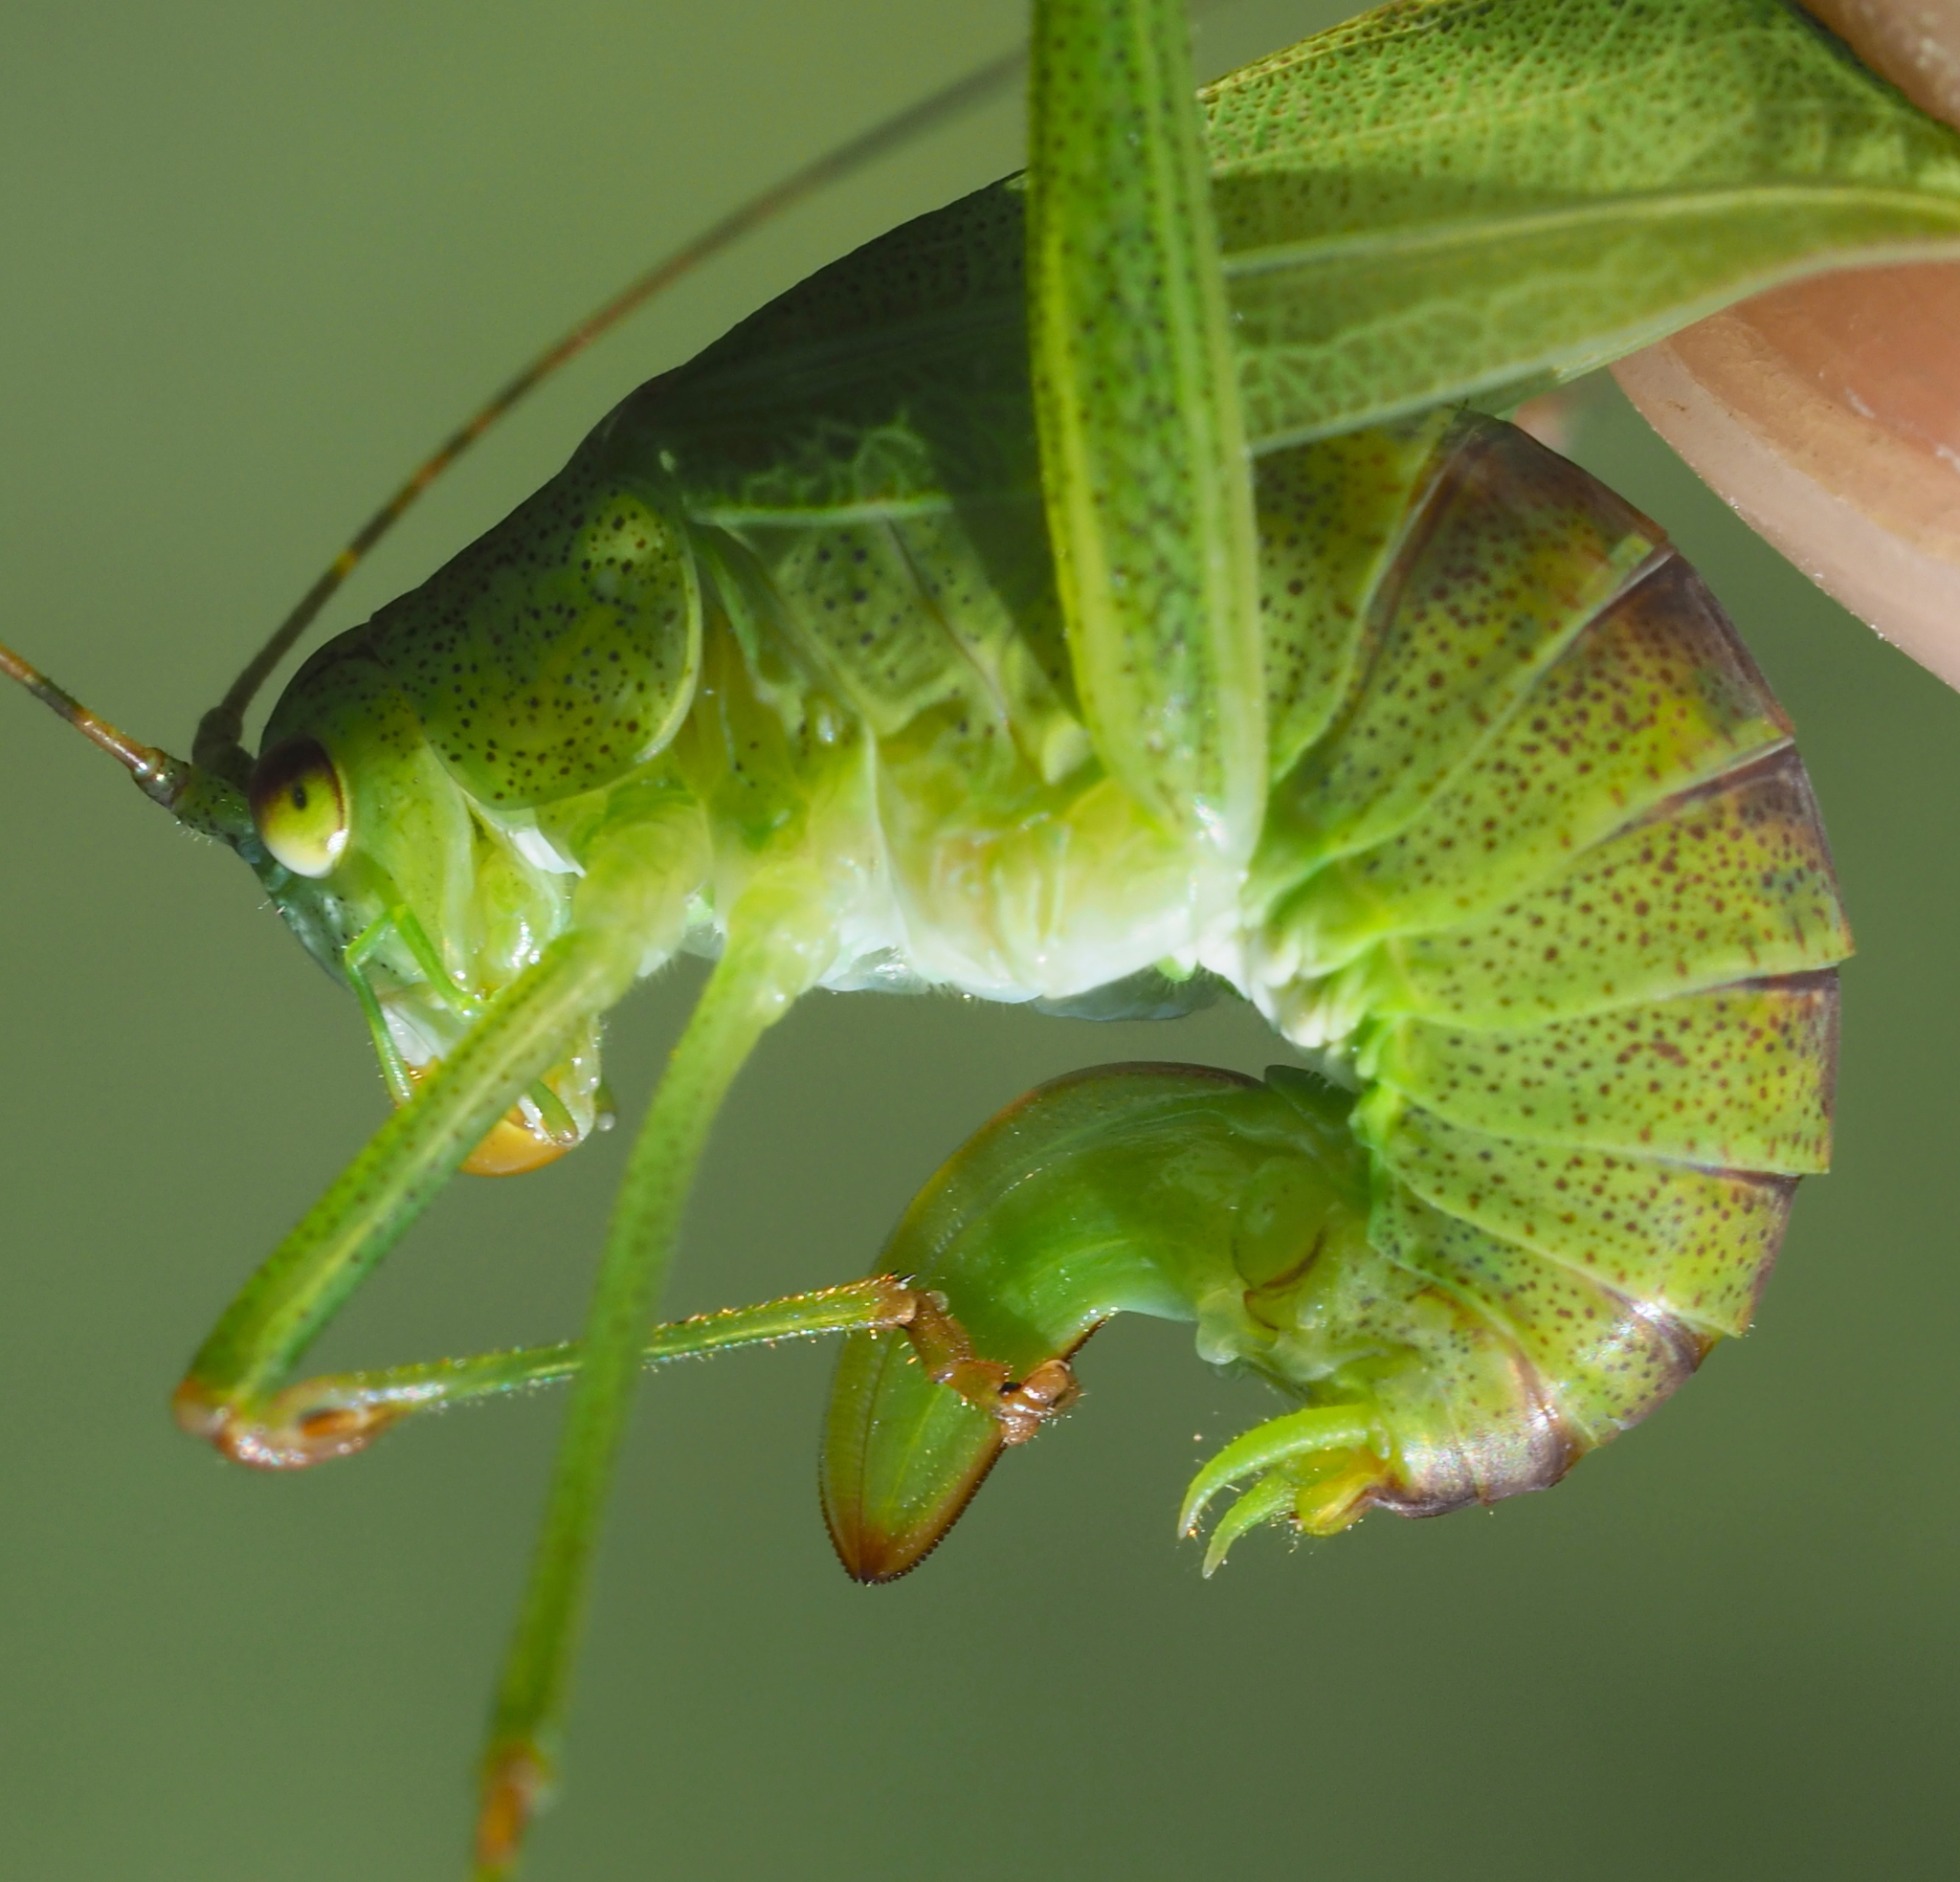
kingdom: Animalia
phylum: Arthropoda
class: Insecta
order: Orthoptera
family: Tettigoniidae
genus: Phaneroptera
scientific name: Phaneroptera falcata
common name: Sickle-bearing bush-cricket
